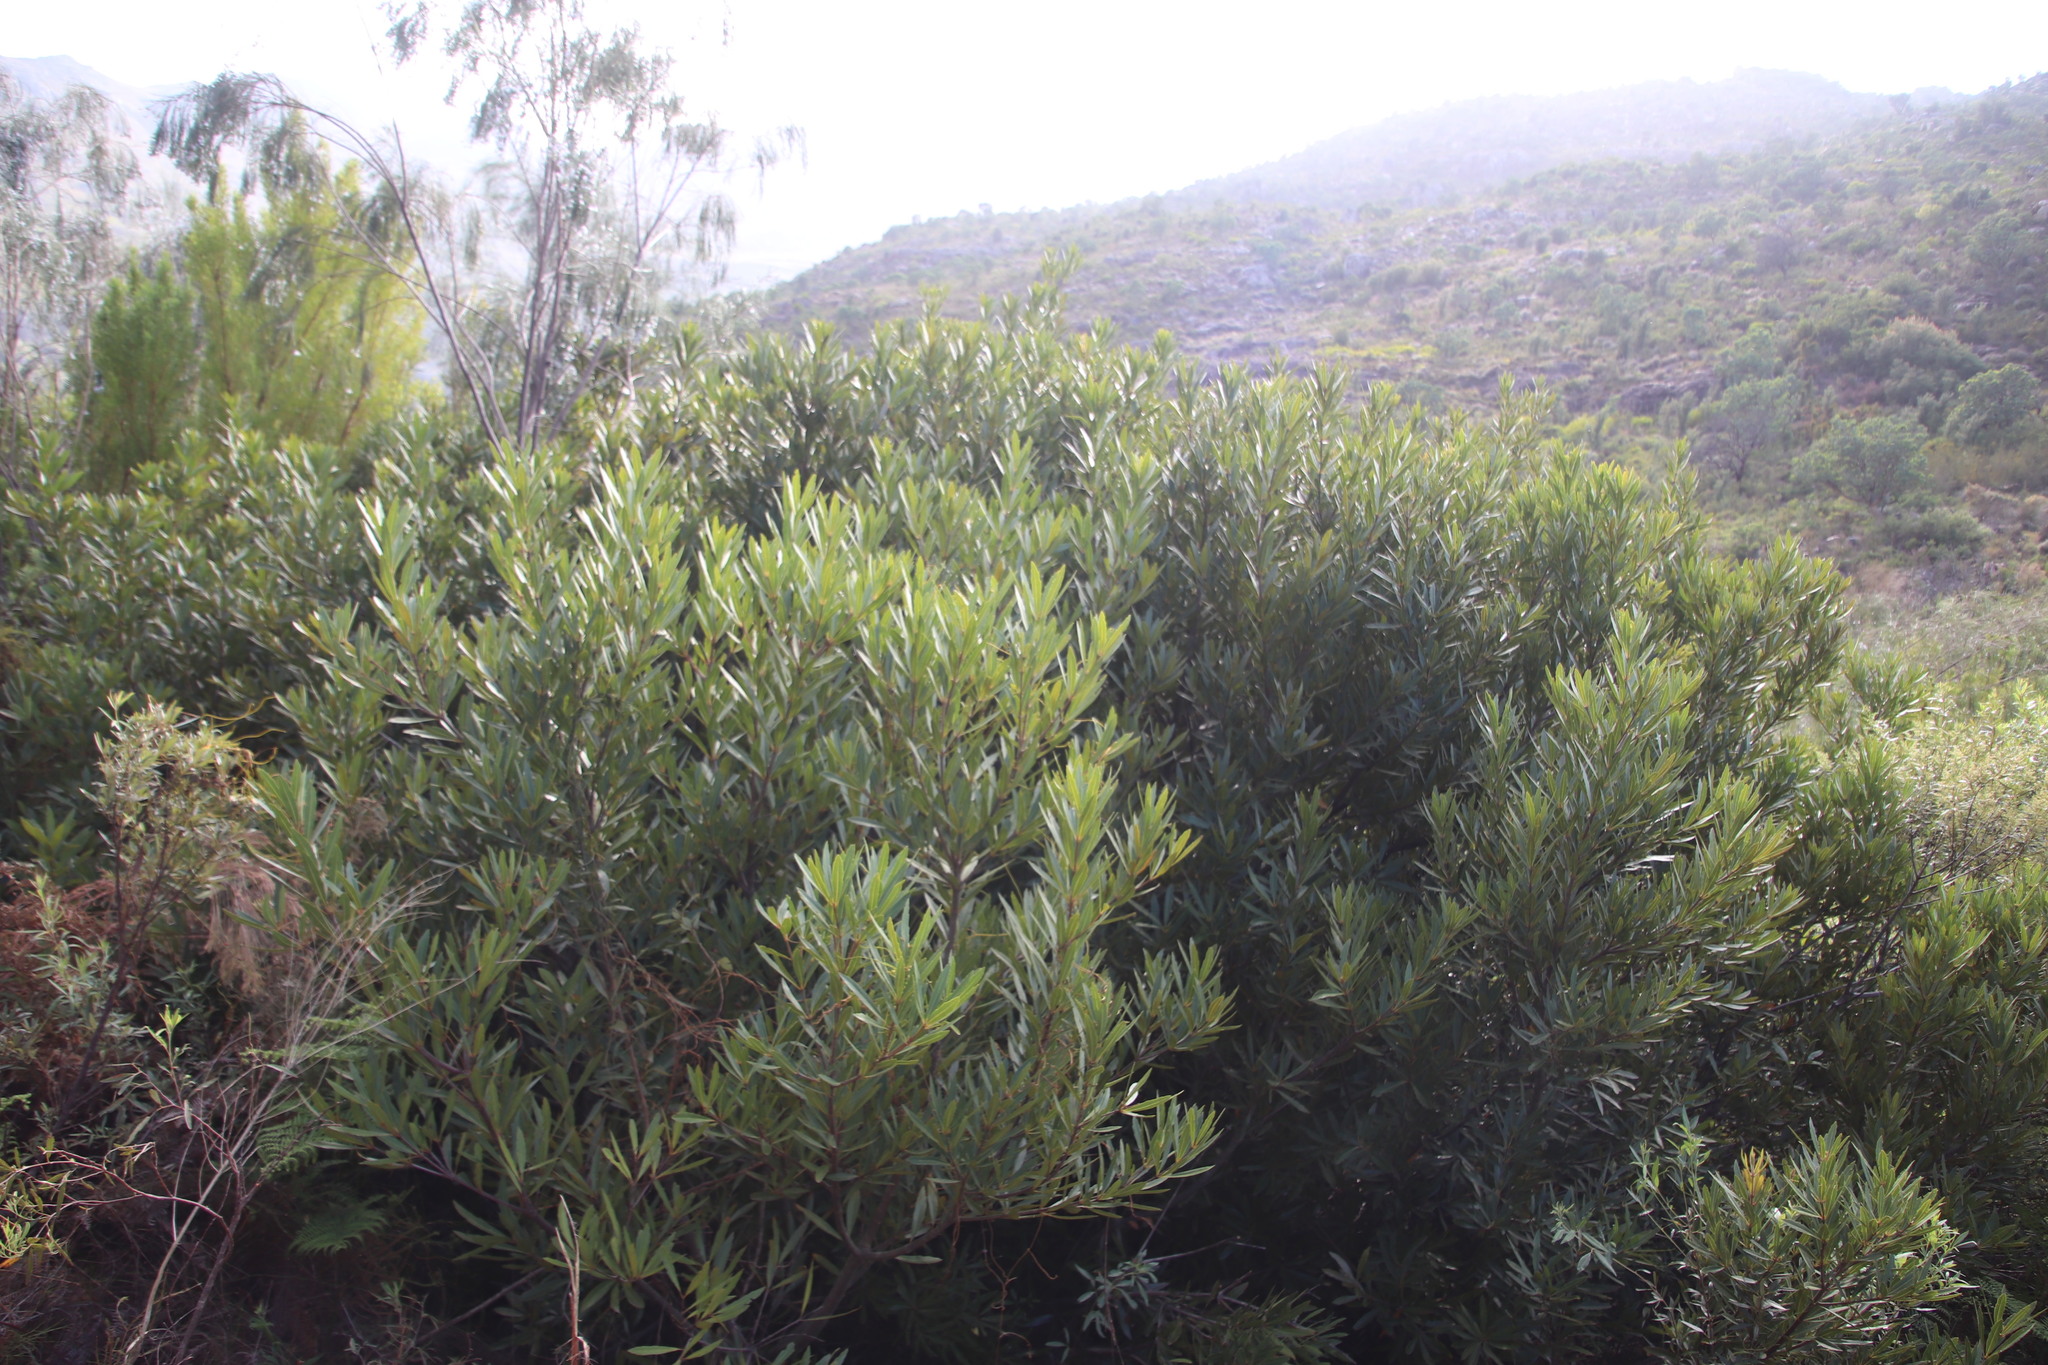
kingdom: Plantae
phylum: Tracheophyta
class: Magnoliopsida
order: Proteales
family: Proteaceae
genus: Brabejum
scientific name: Brabejum stellatifolium
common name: Wild almond
